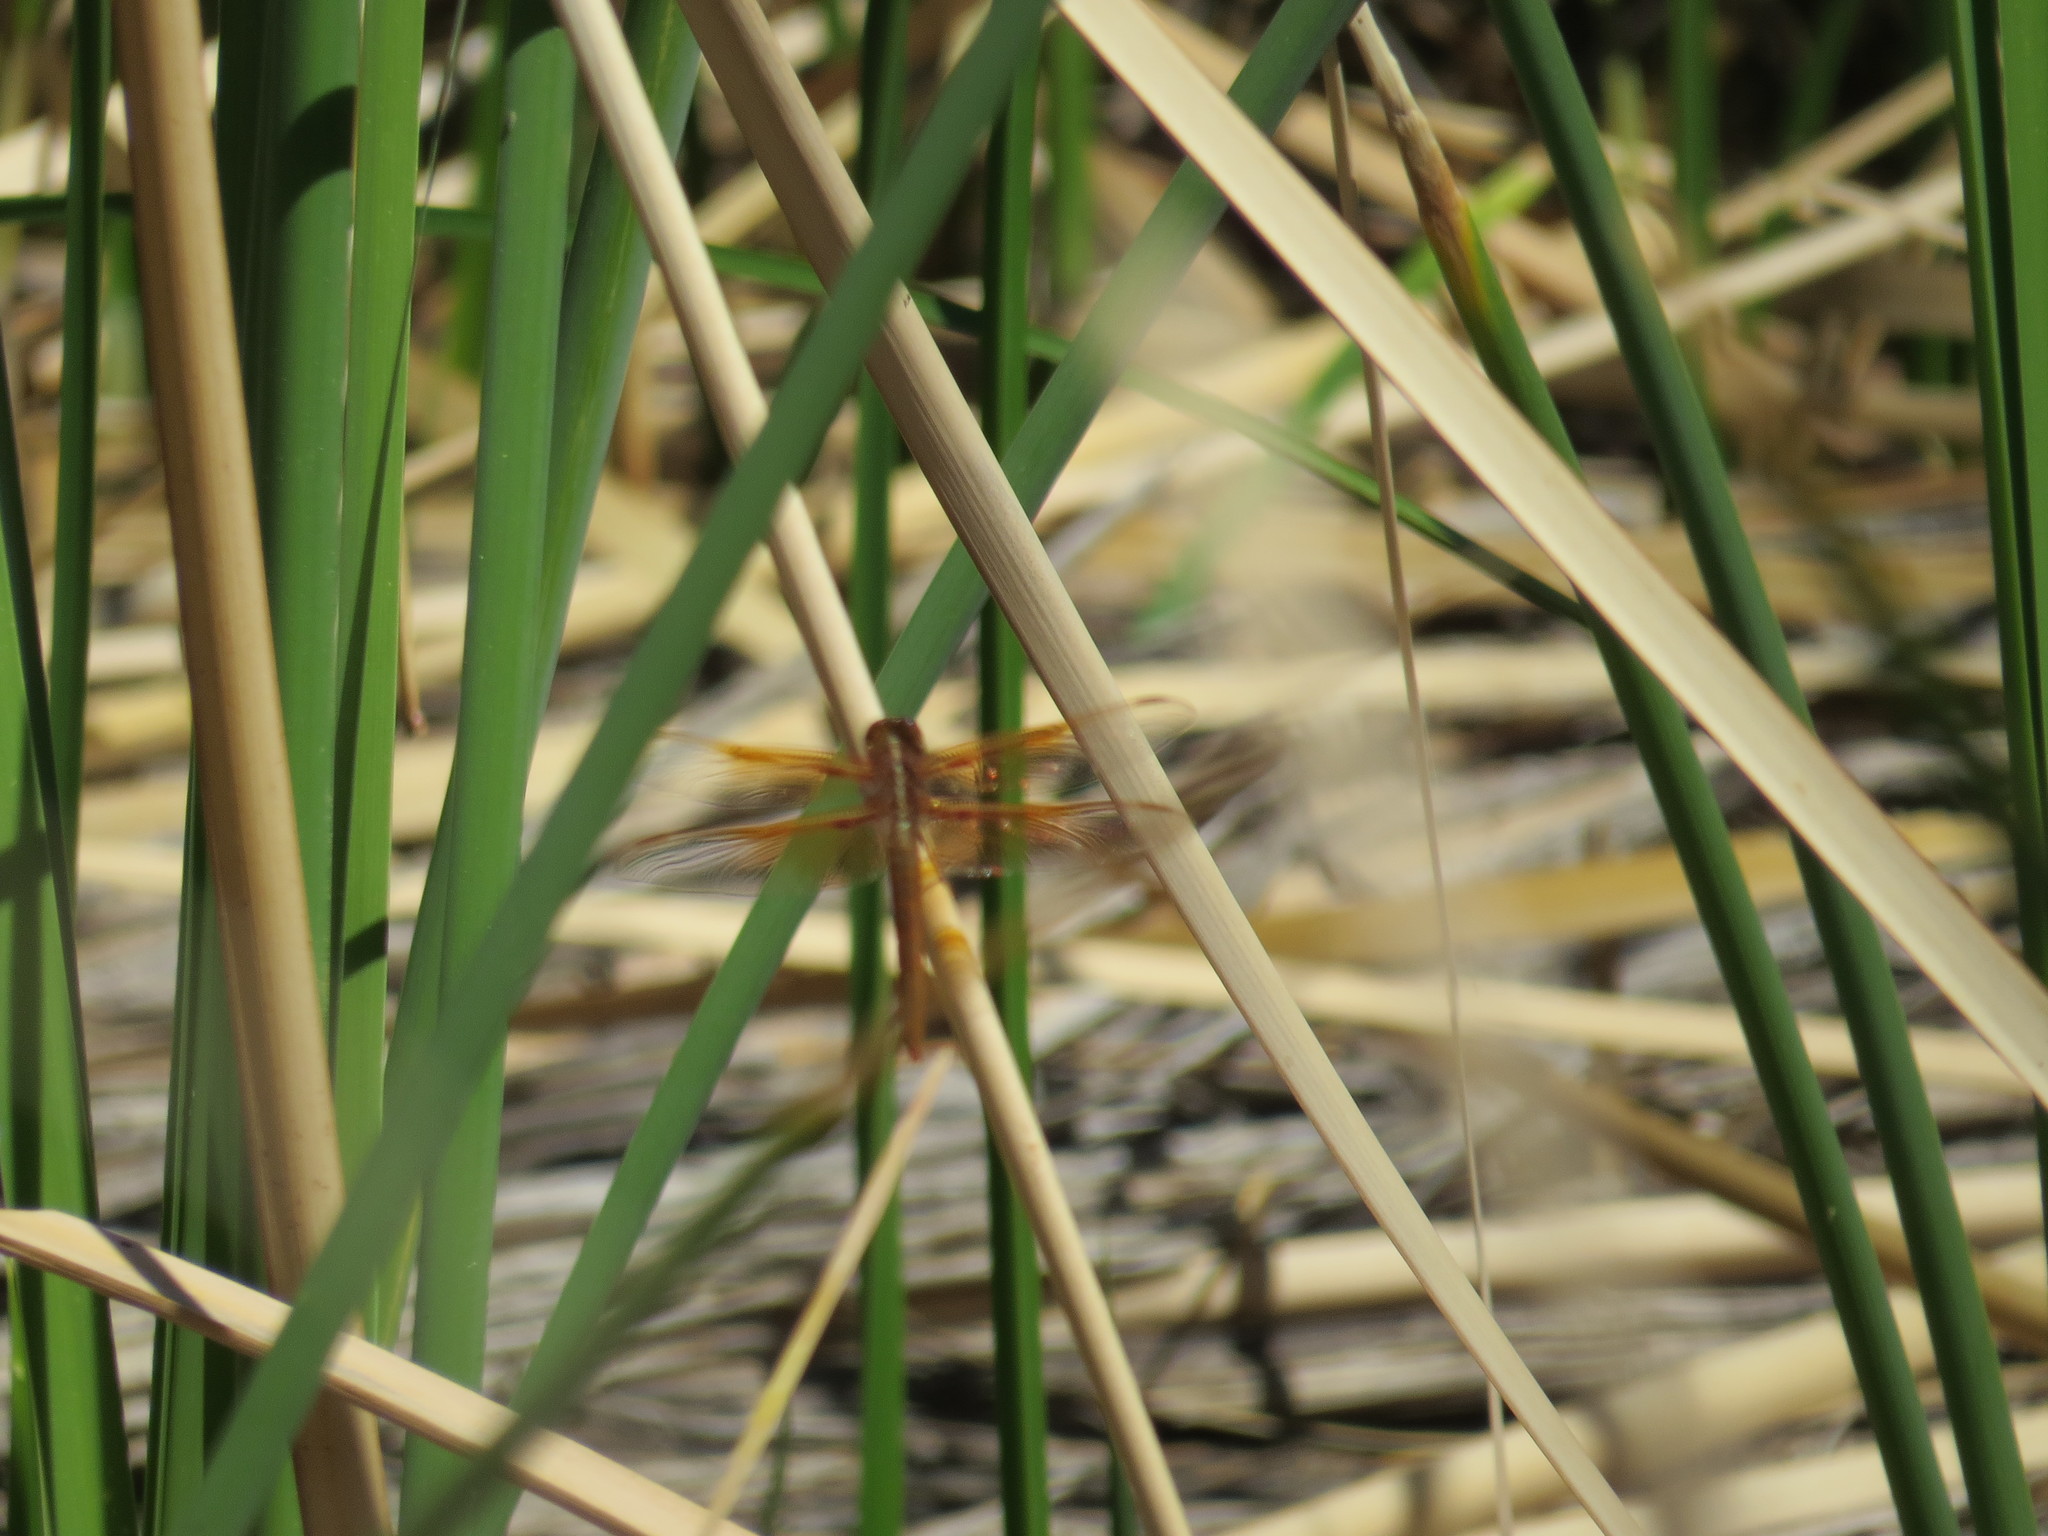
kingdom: Animalia
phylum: Arthropoda
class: Insecta
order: Odonata
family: Libellulidae
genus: Libellula
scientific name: Libellula saturata
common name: Flame skimmer
